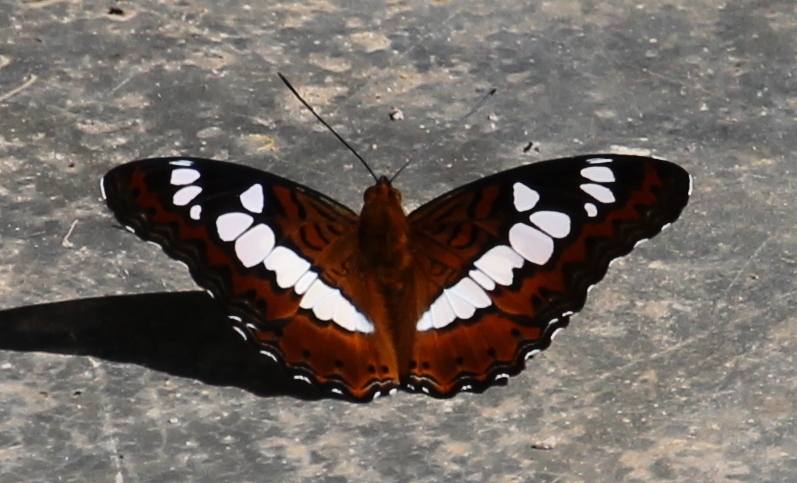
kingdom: Animalia
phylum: Arthropoda
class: Insecta
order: Lepidoptera
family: Nymphalidae
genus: Limenitis
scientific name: Limenitis Moduza procris
